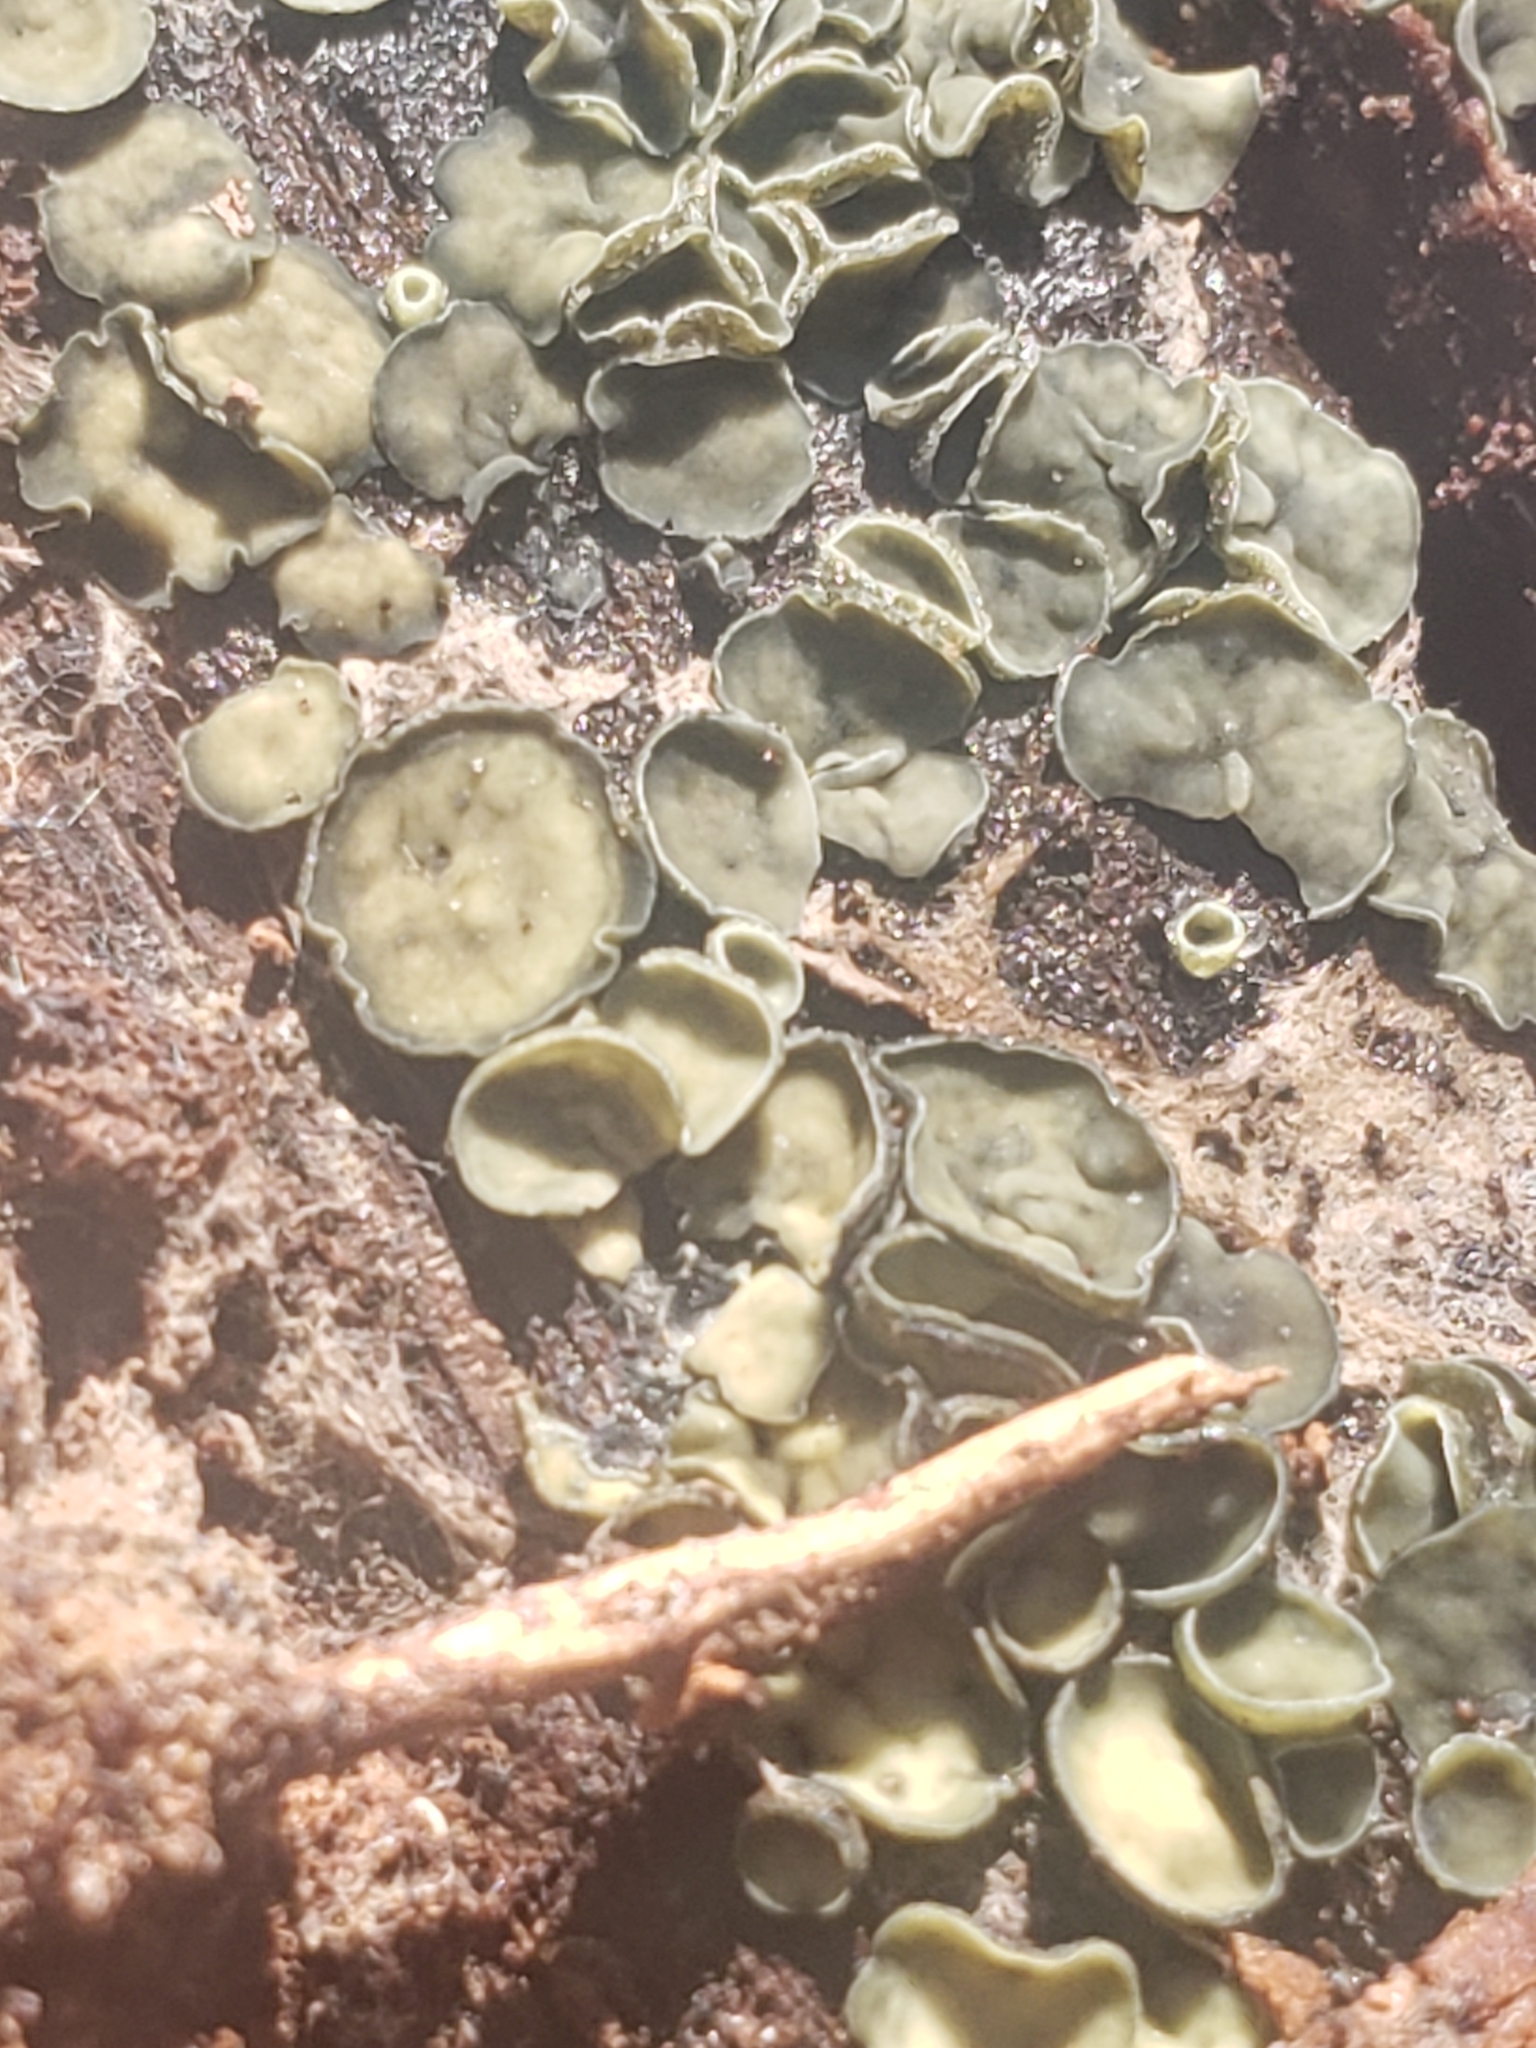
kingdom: Fungi
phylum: Ascomycota
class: Leotiomycetes
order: Helotiales
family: Chlorospleniaceae
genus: Chlorosplenium
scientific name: Chlorosplenium chlora
